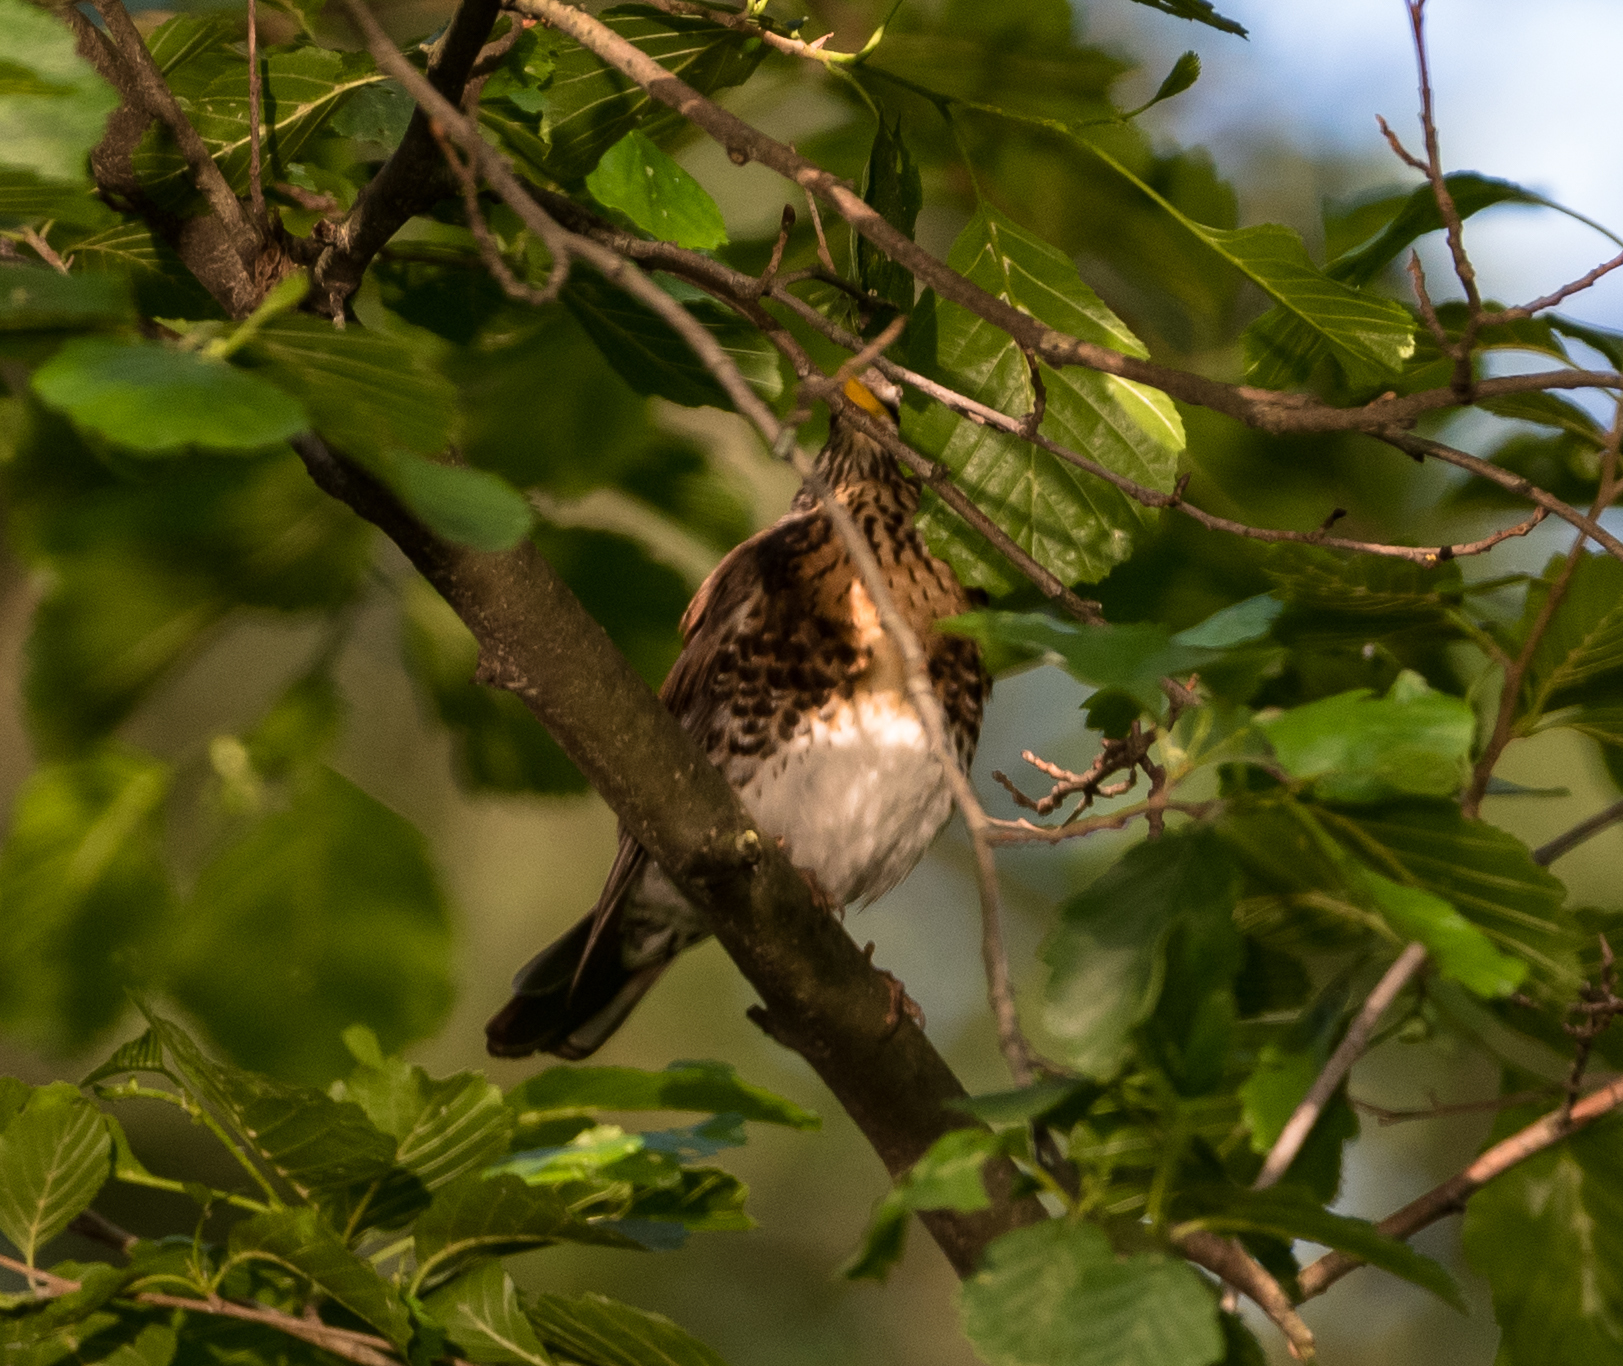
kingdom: Animalia
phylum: Chordata
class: Aves
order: Passeriformes
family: Turdidae
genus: Turdus
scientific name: Turdus pilaris
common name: Fieldfare
